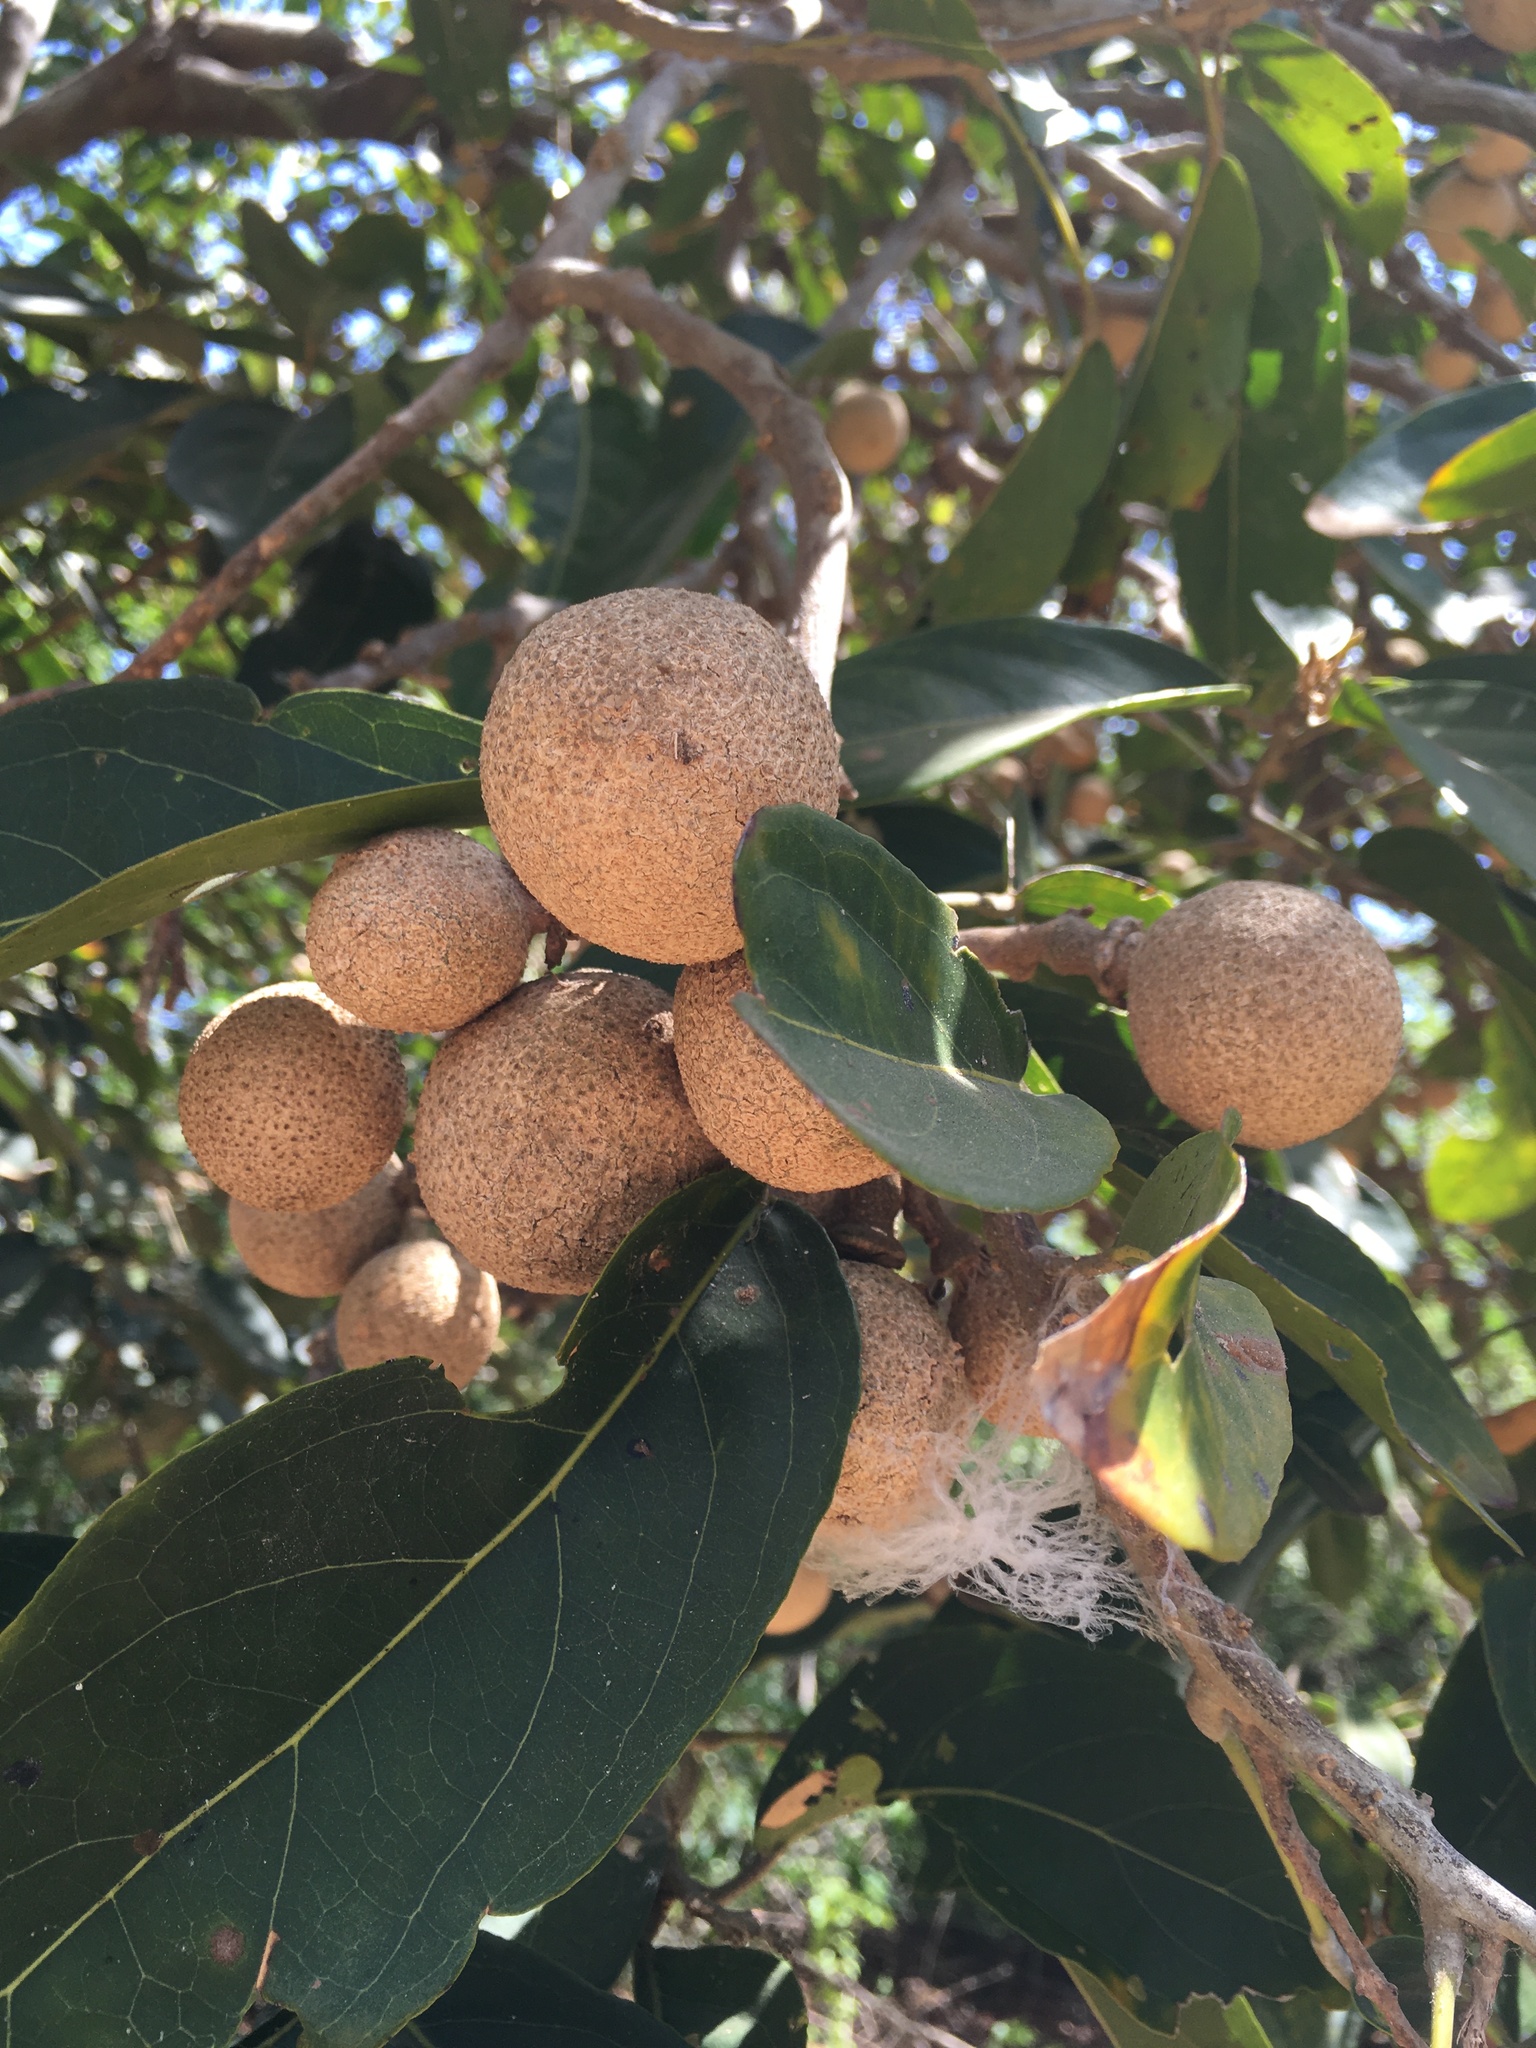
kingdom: Plantae
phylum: Tracheophyta
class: Magnoliopsida
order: Ericales
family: Sapotaceae
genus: Manilkara
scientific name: Manilkara zapota
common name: Sapodilla
